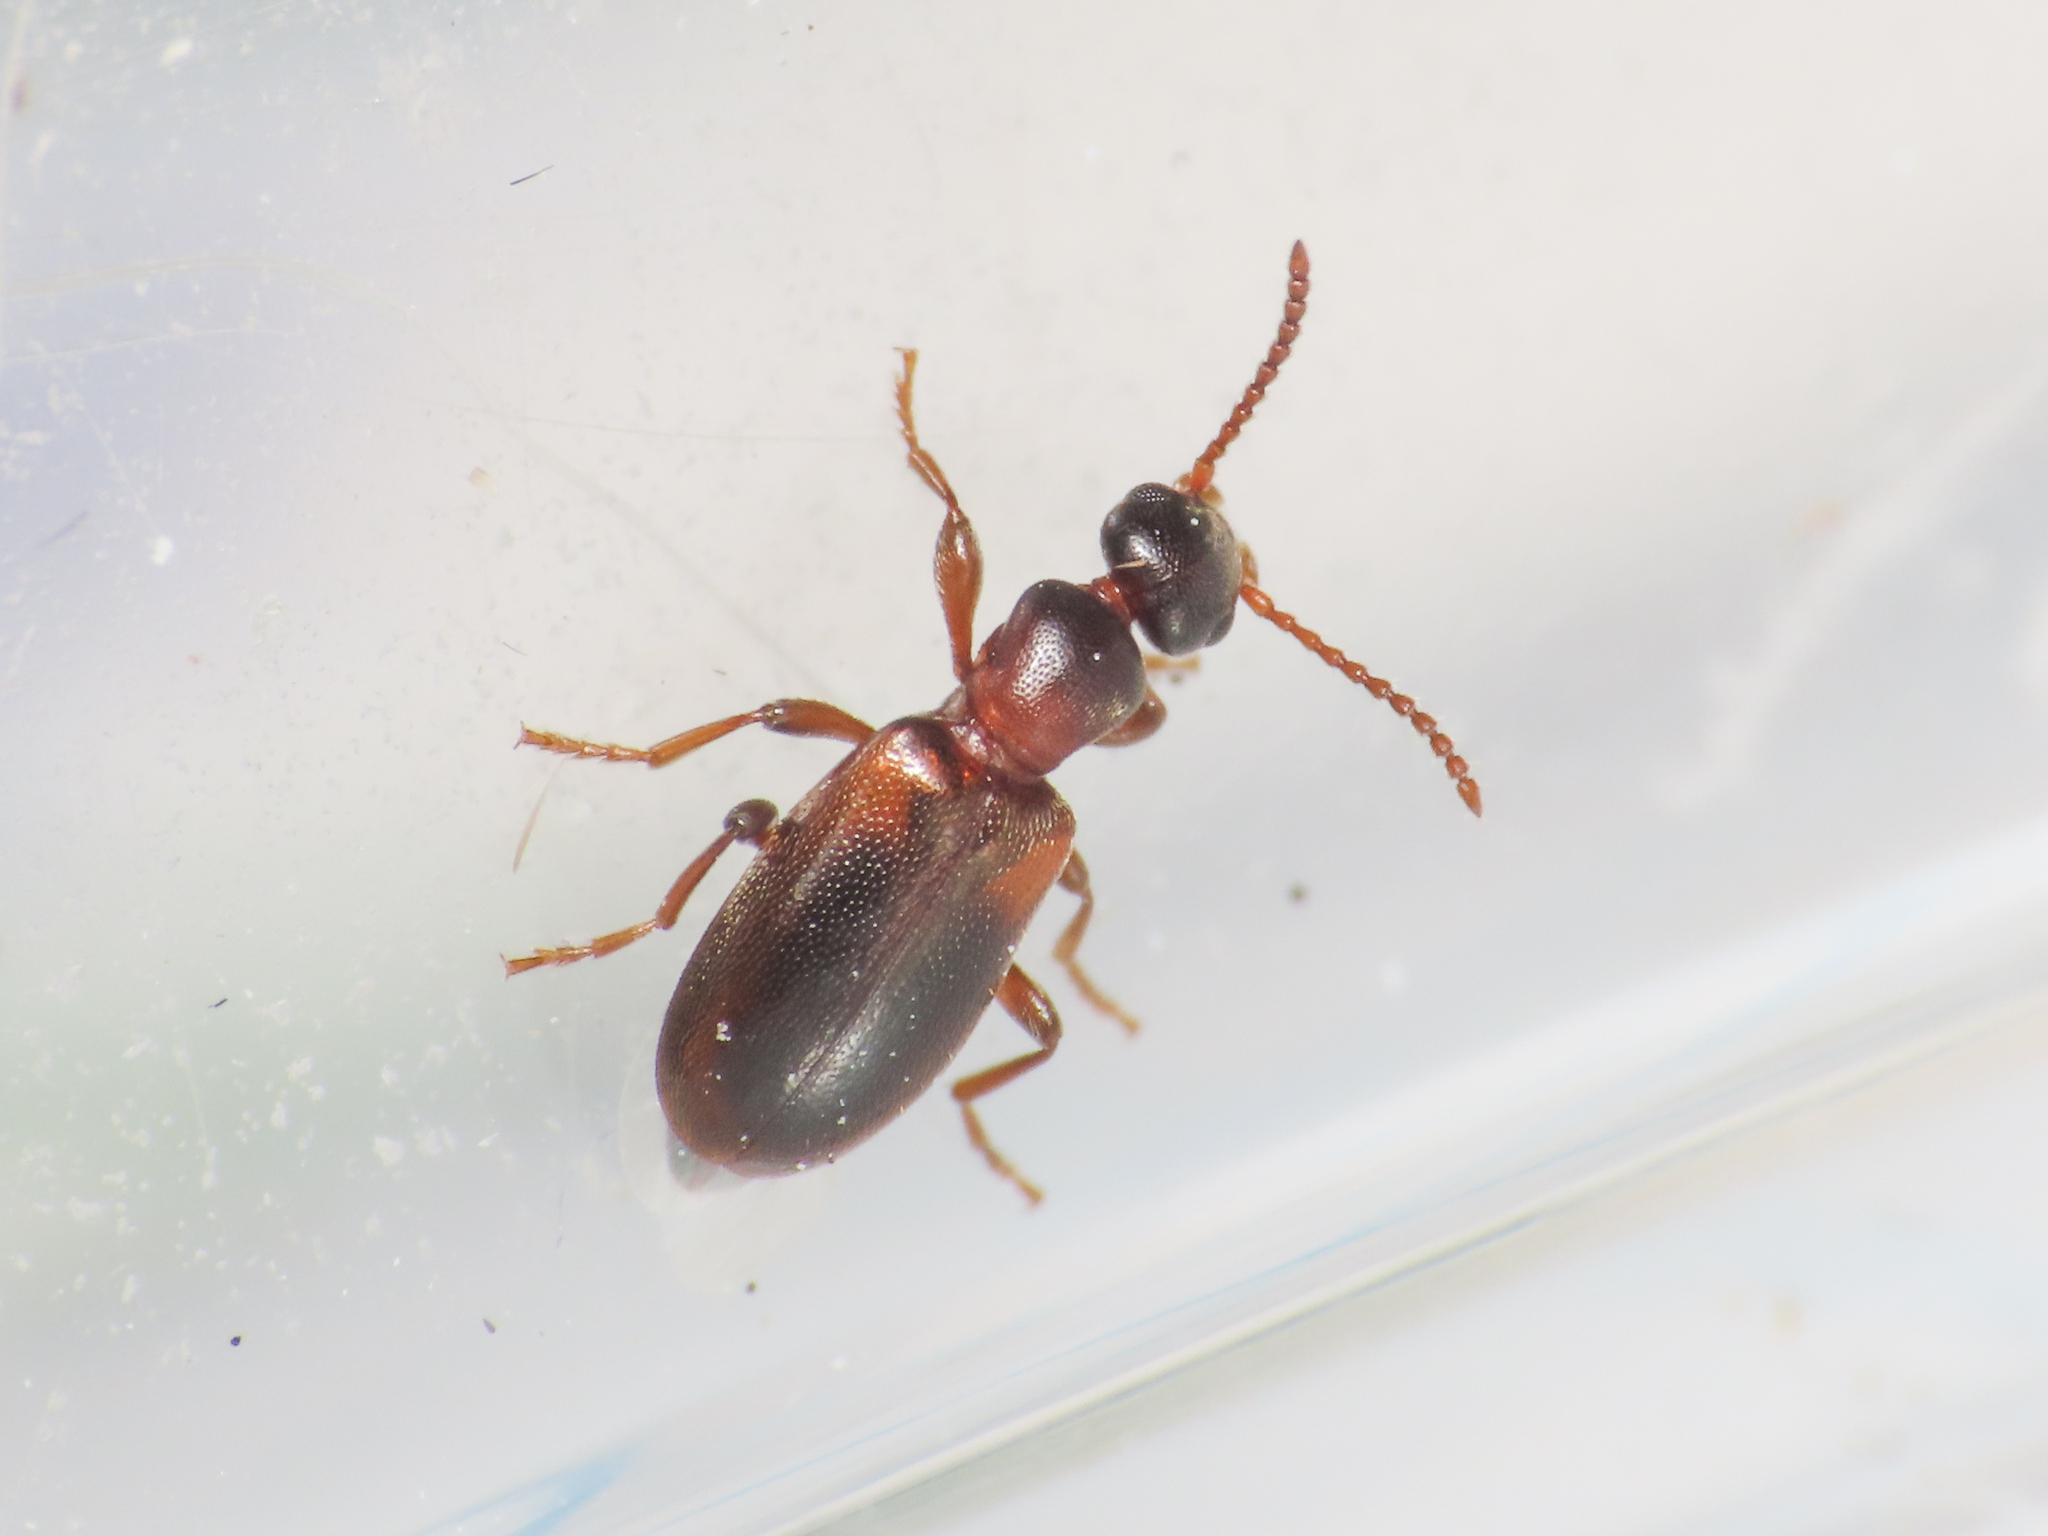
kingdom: Animalia
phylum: Arthropoda
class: Insecta
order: Coleoptera
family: Anthicidae
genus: Omonadus
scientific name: Omonadus formicarius
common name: Antlike flower beetle
